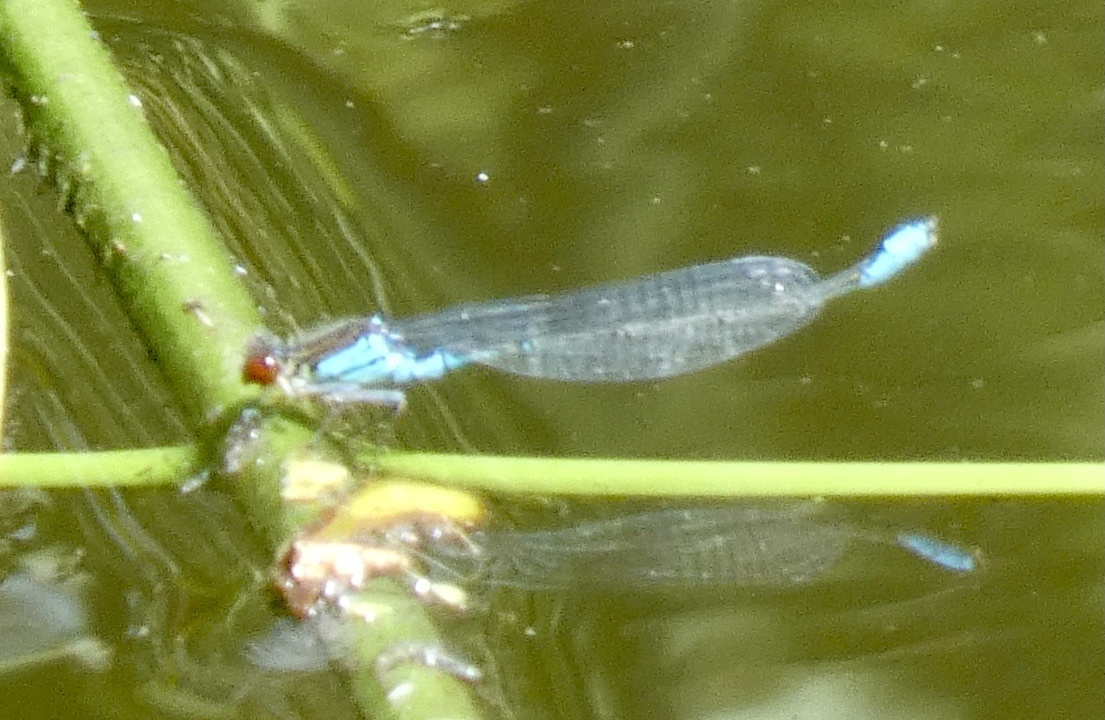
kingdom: Animalia
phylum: Arthropoda
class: Insecta
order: Odonata
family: Coenagrionidae
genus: Erythromma
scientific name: Erythromma viridulum
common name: Small red-eyed damselfly
